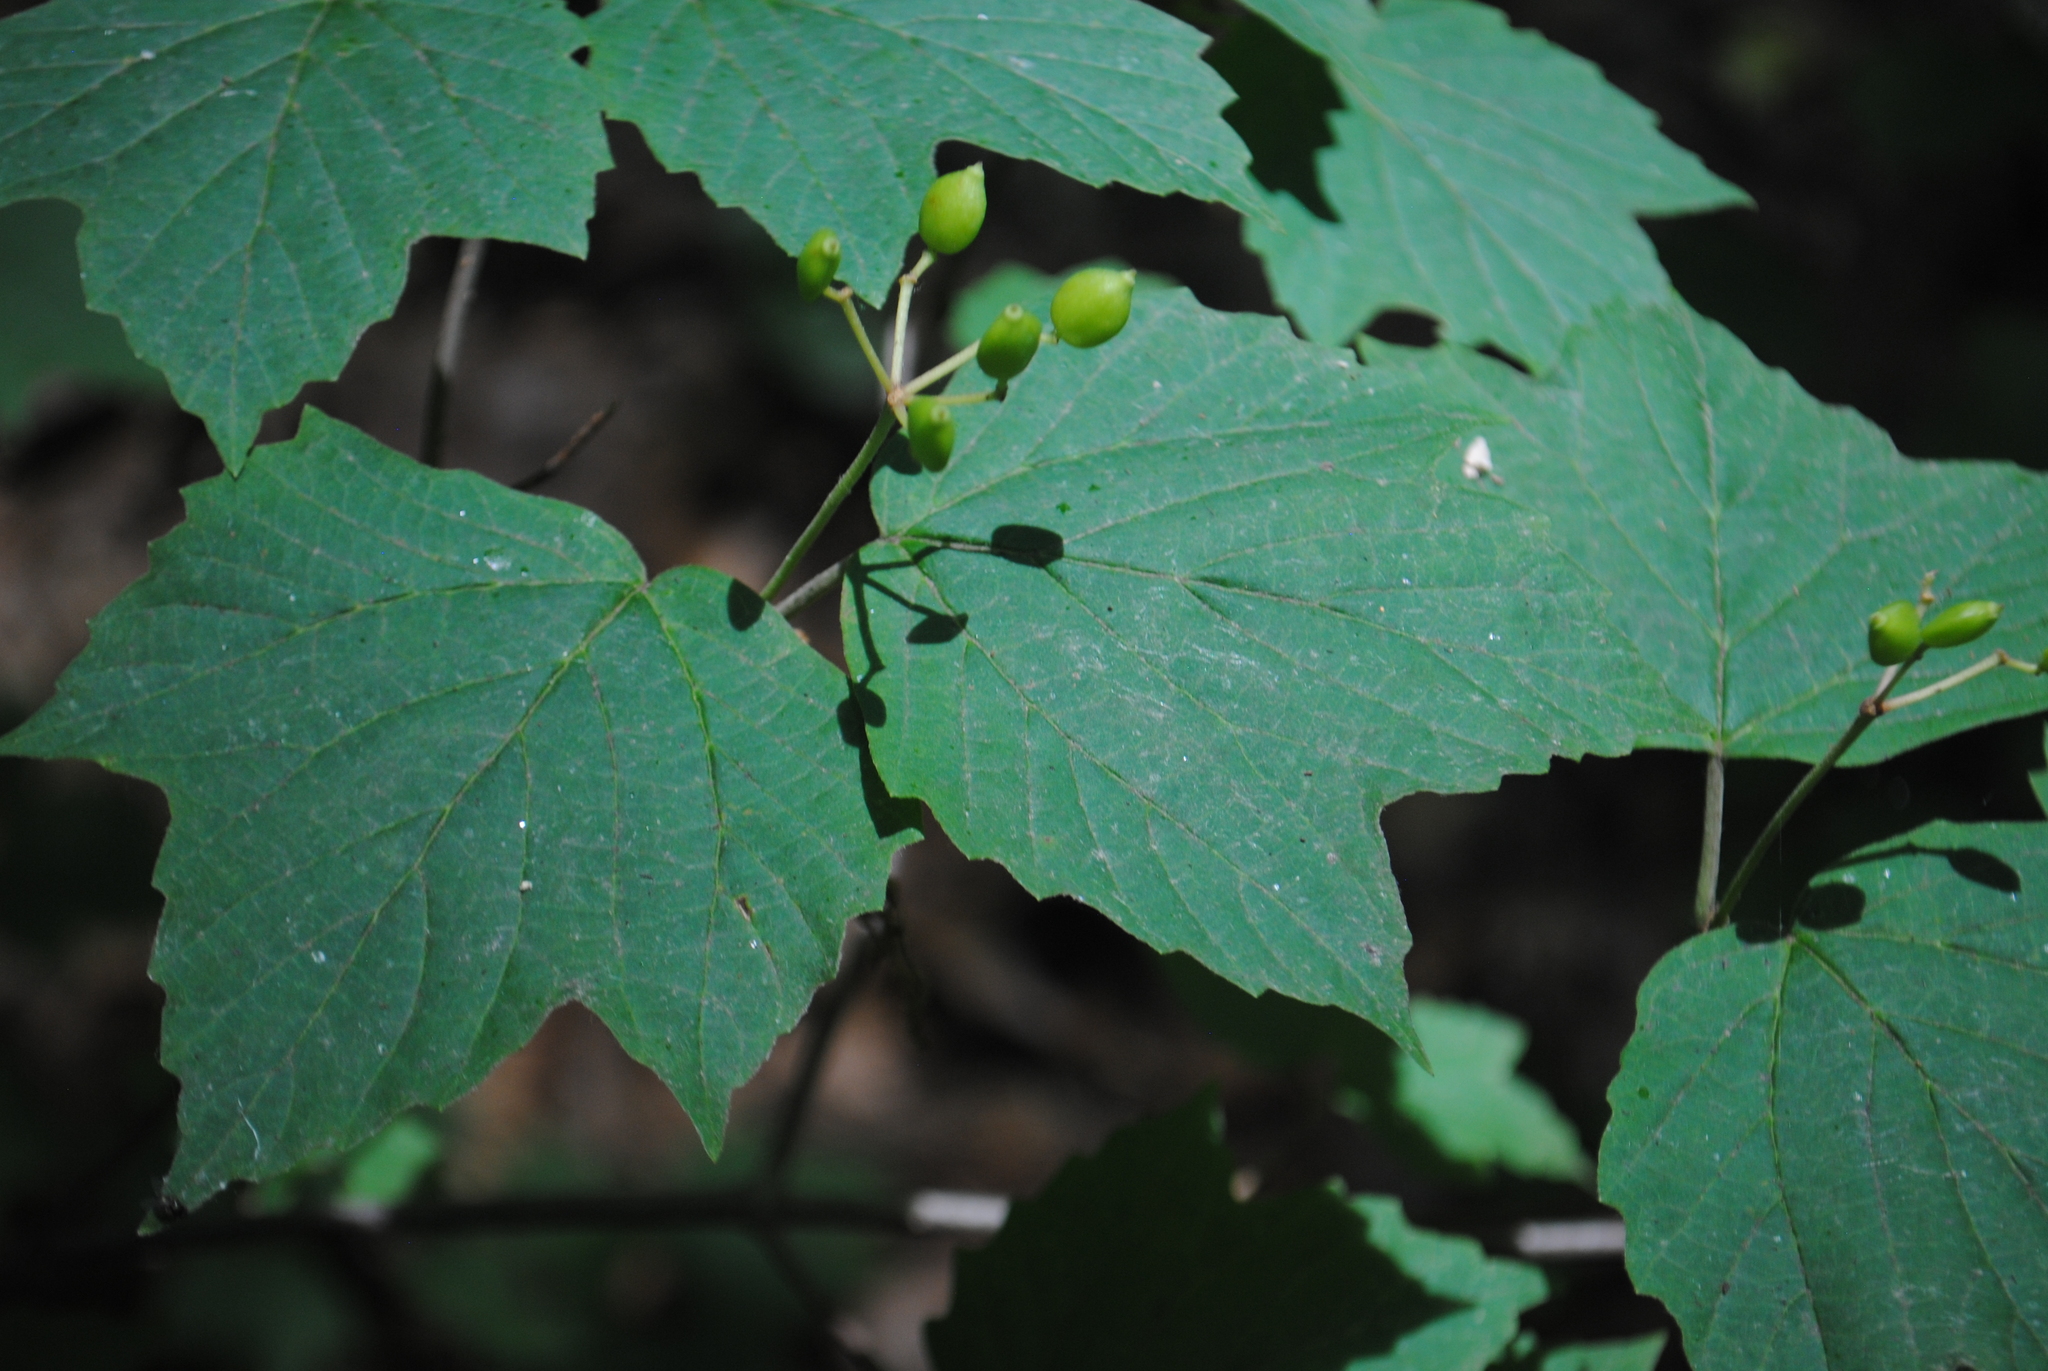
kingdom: Plantae
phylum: Tracheophyta
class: Magnoliopsida
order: Dipsacales
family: Viburnaceae
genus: Viburnum
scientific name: Viburnum acerifolium
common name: Dockmackie
